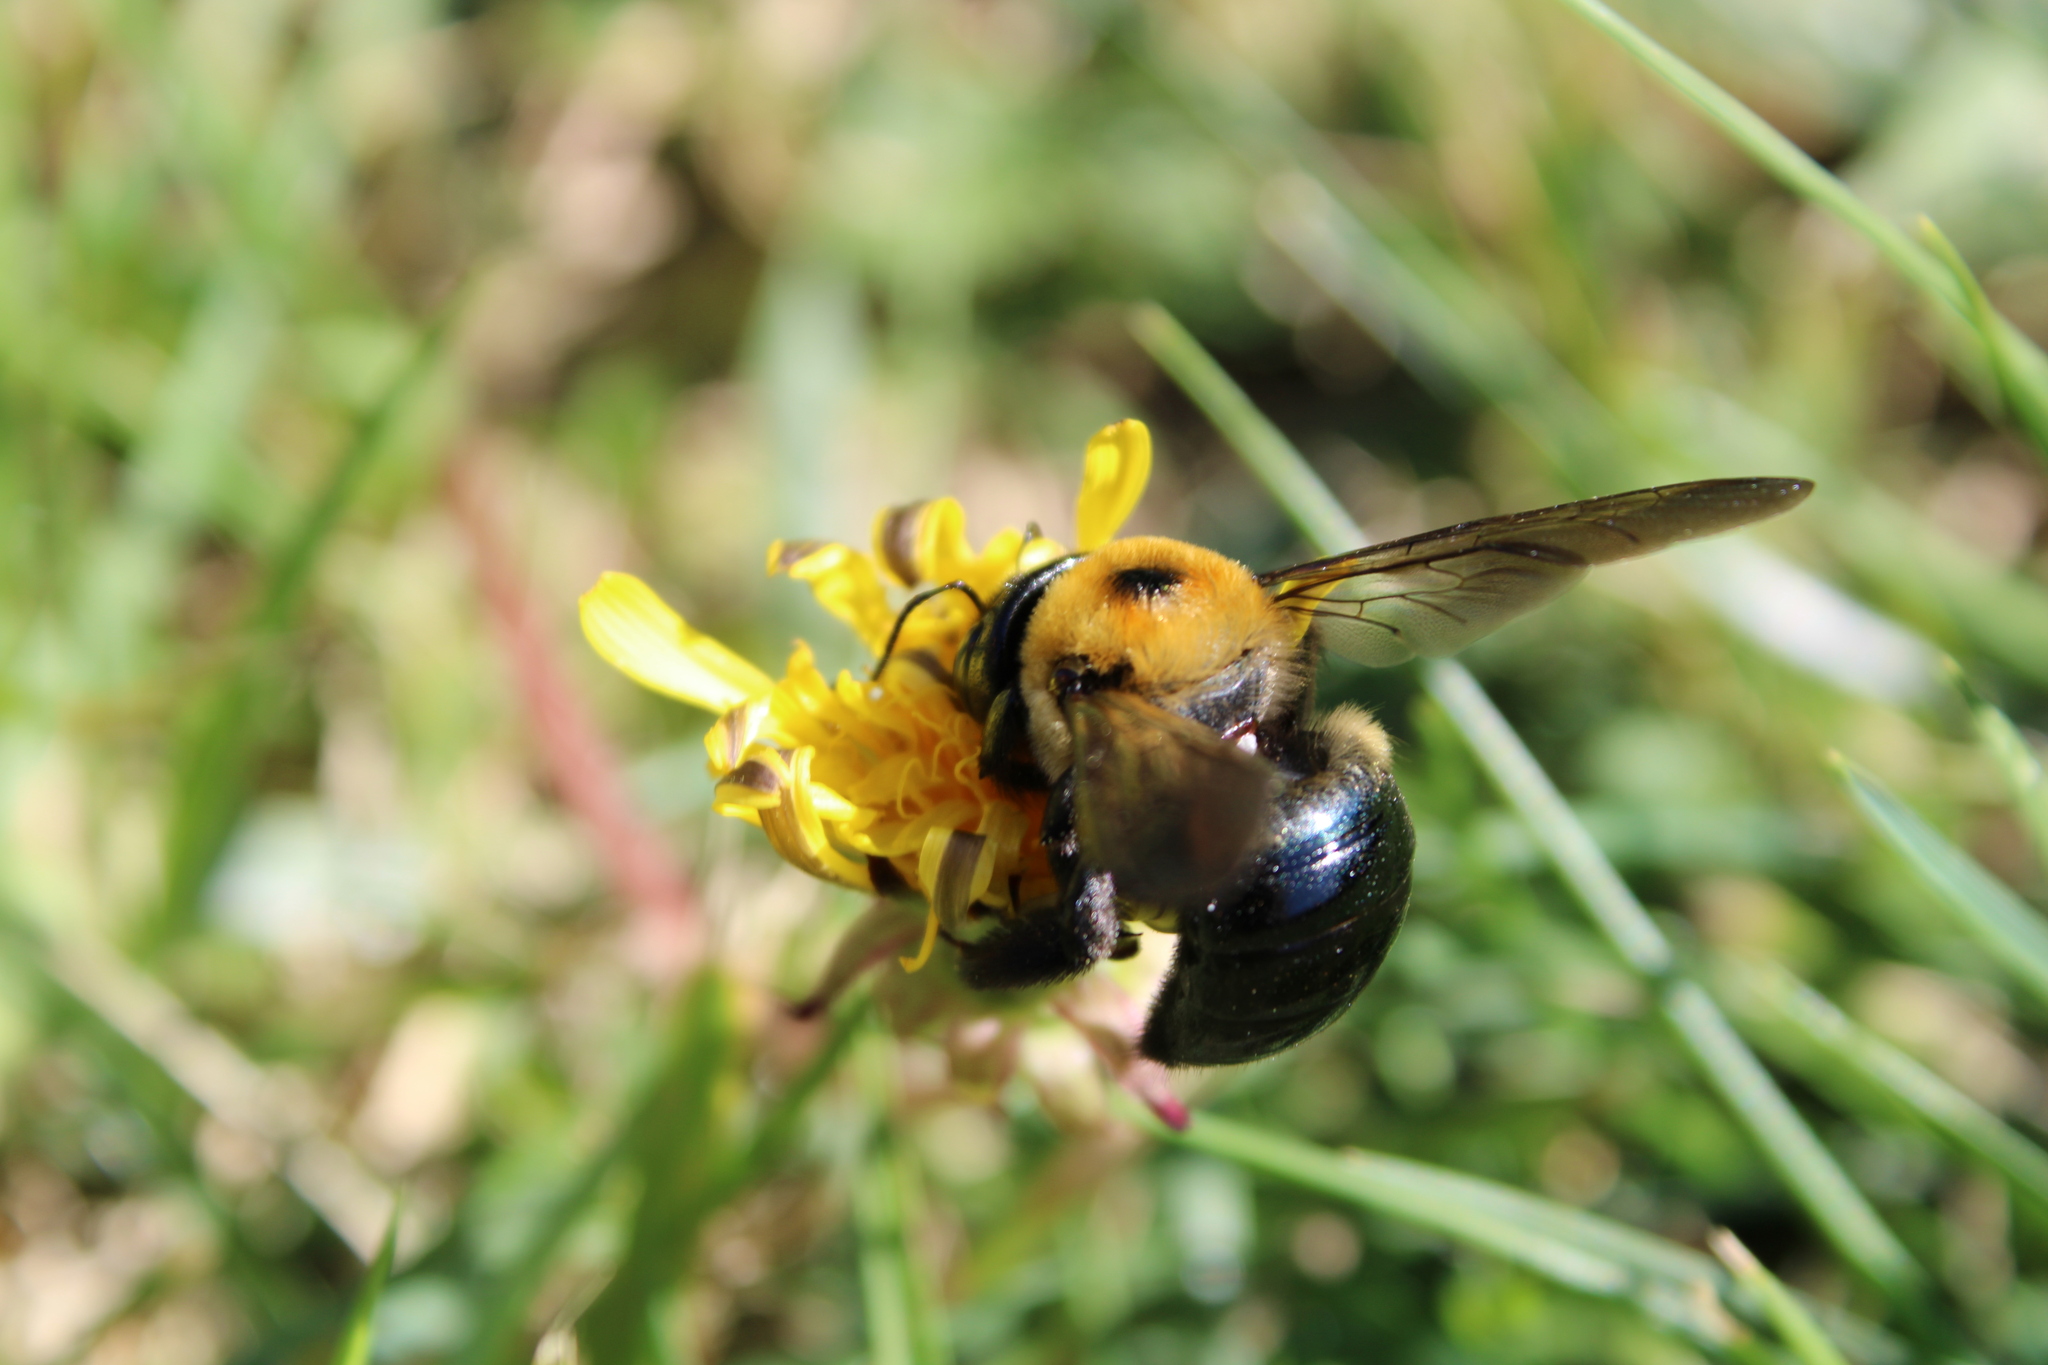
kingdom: Animalia
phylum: Arthropoda
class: Insecta
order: Hymenoptera
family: Apidae
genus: Xylocopa
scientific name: Xylocopa virginica
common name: Carpenter bee
